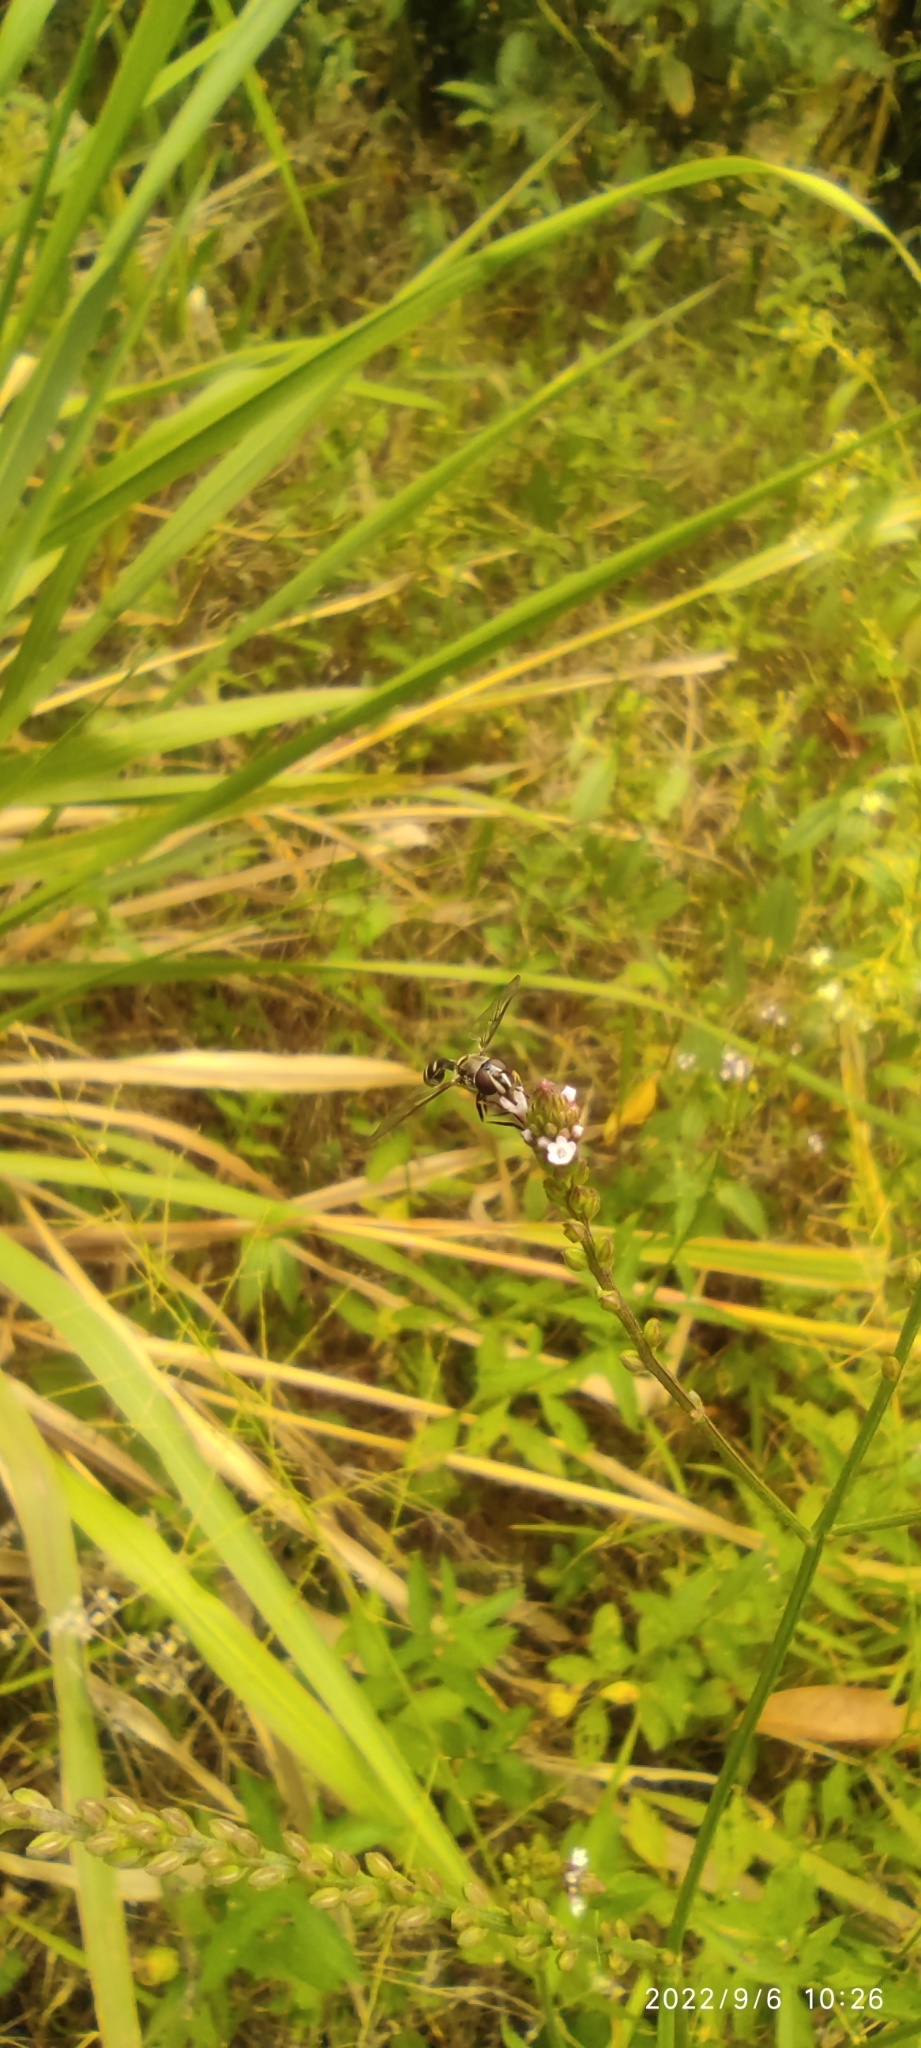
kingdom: Animalia
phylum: Arthropoda
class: Insecta
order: Diptera
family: Syrphidae
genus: Dioprosopa
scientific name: Dioprosopa clavatus
